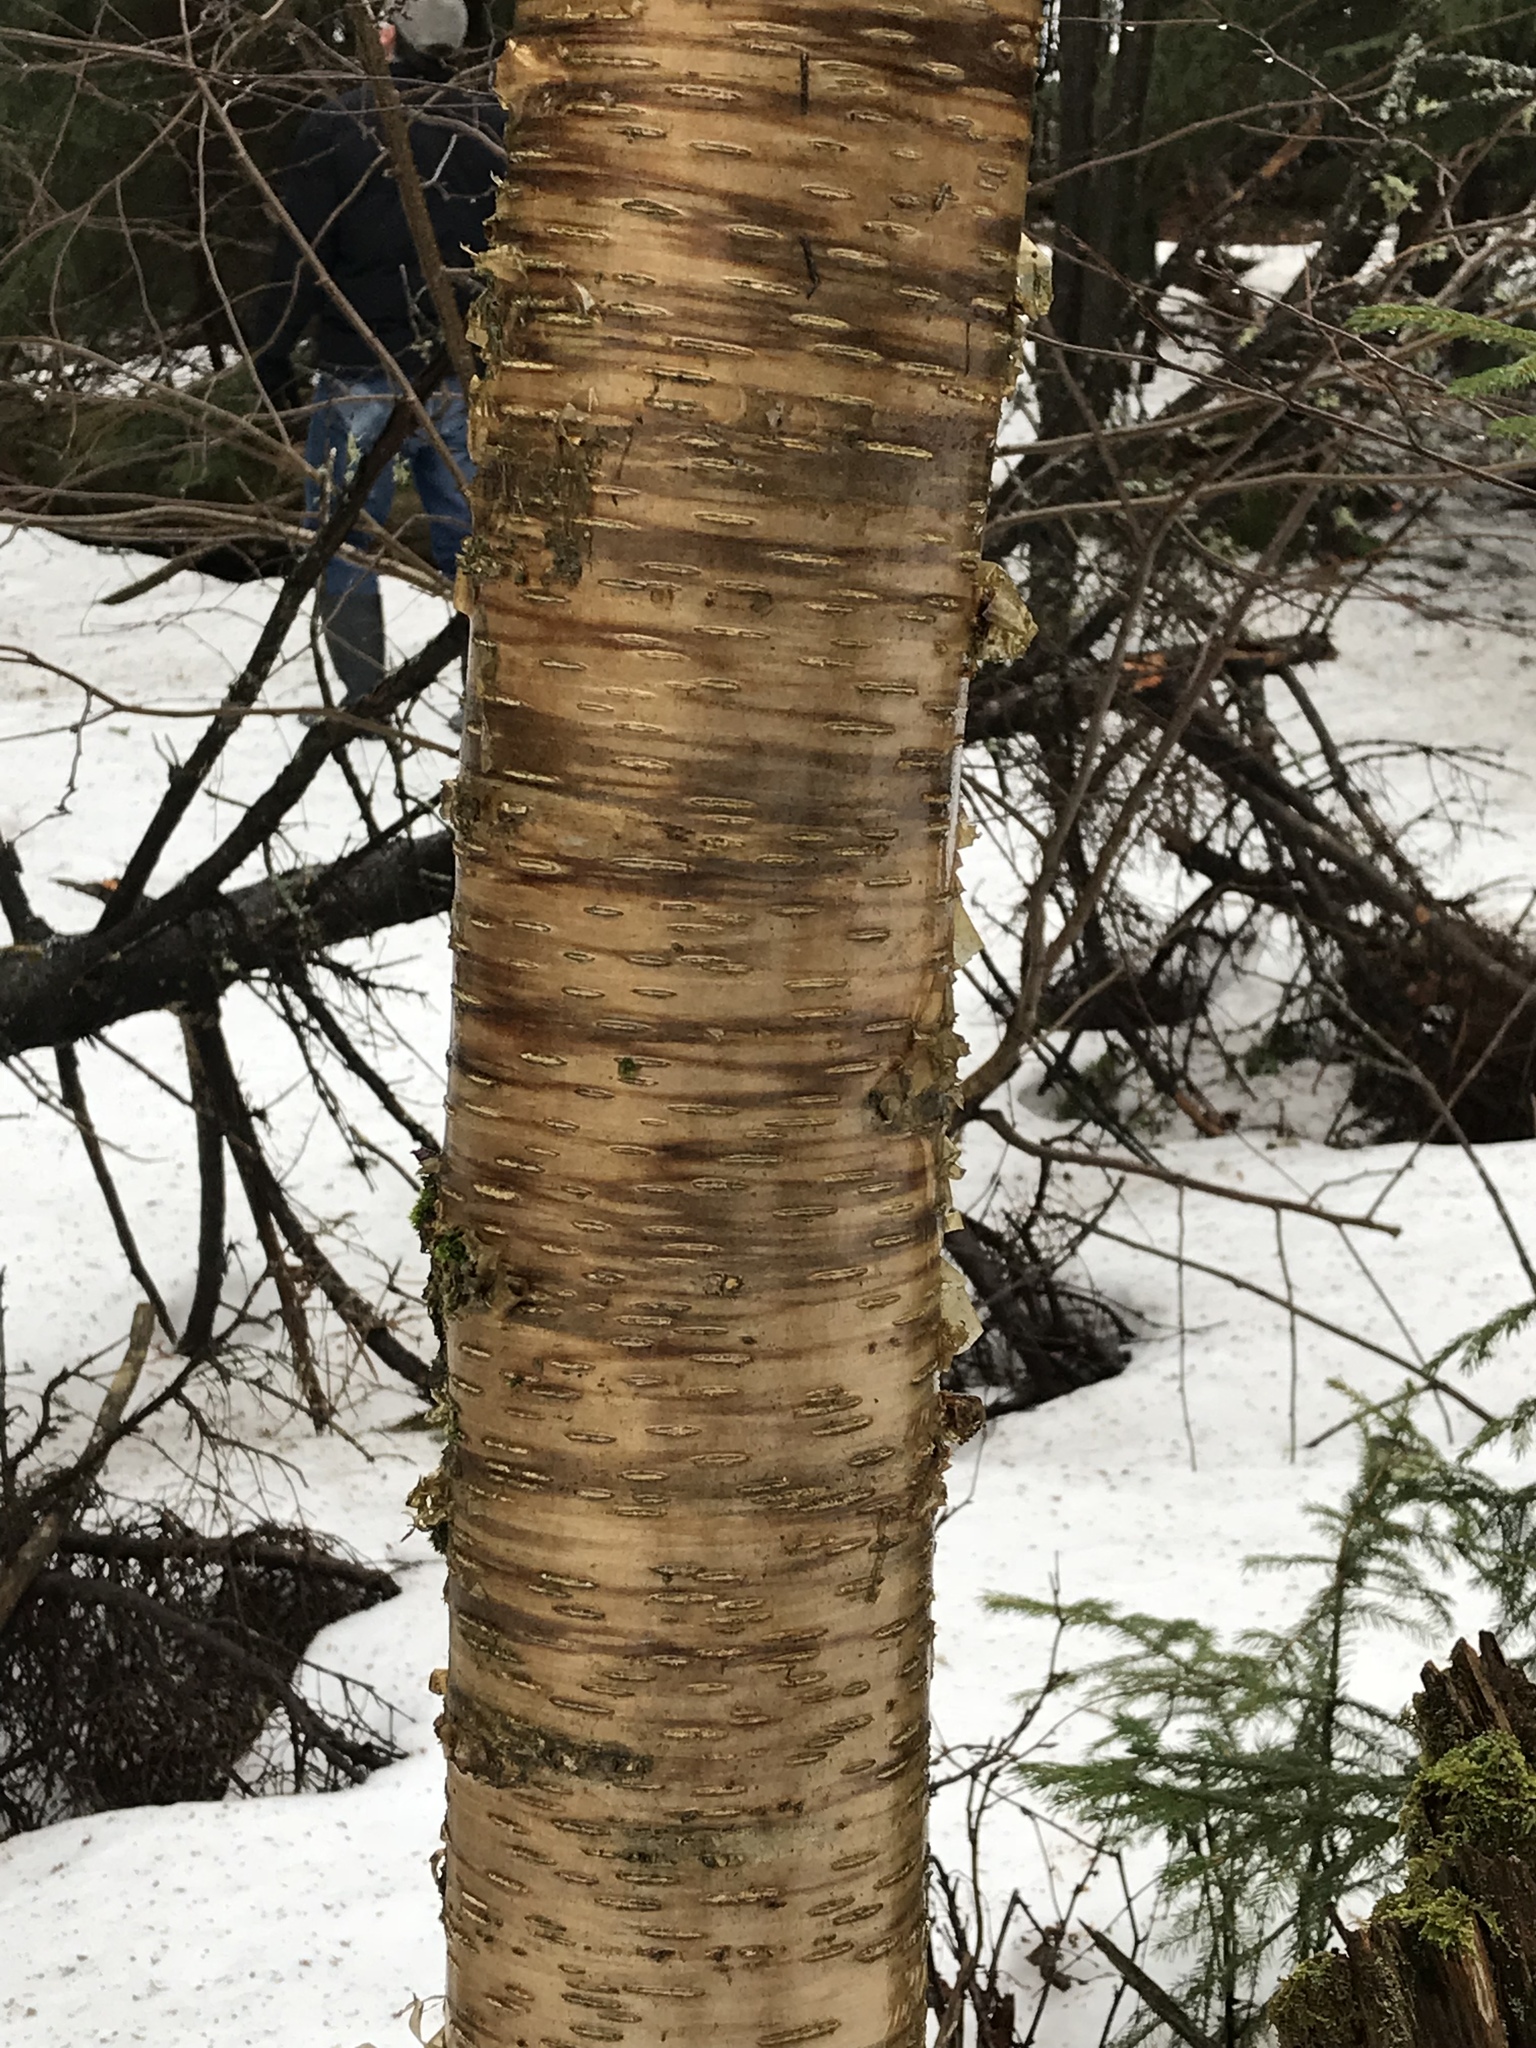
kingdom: Plantae
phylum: Tracheophyta
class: Magnoliopsida
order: Fagales
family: Betulaceae
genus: Betula
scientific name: Betula alleghaniensis
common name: Yellow birch
